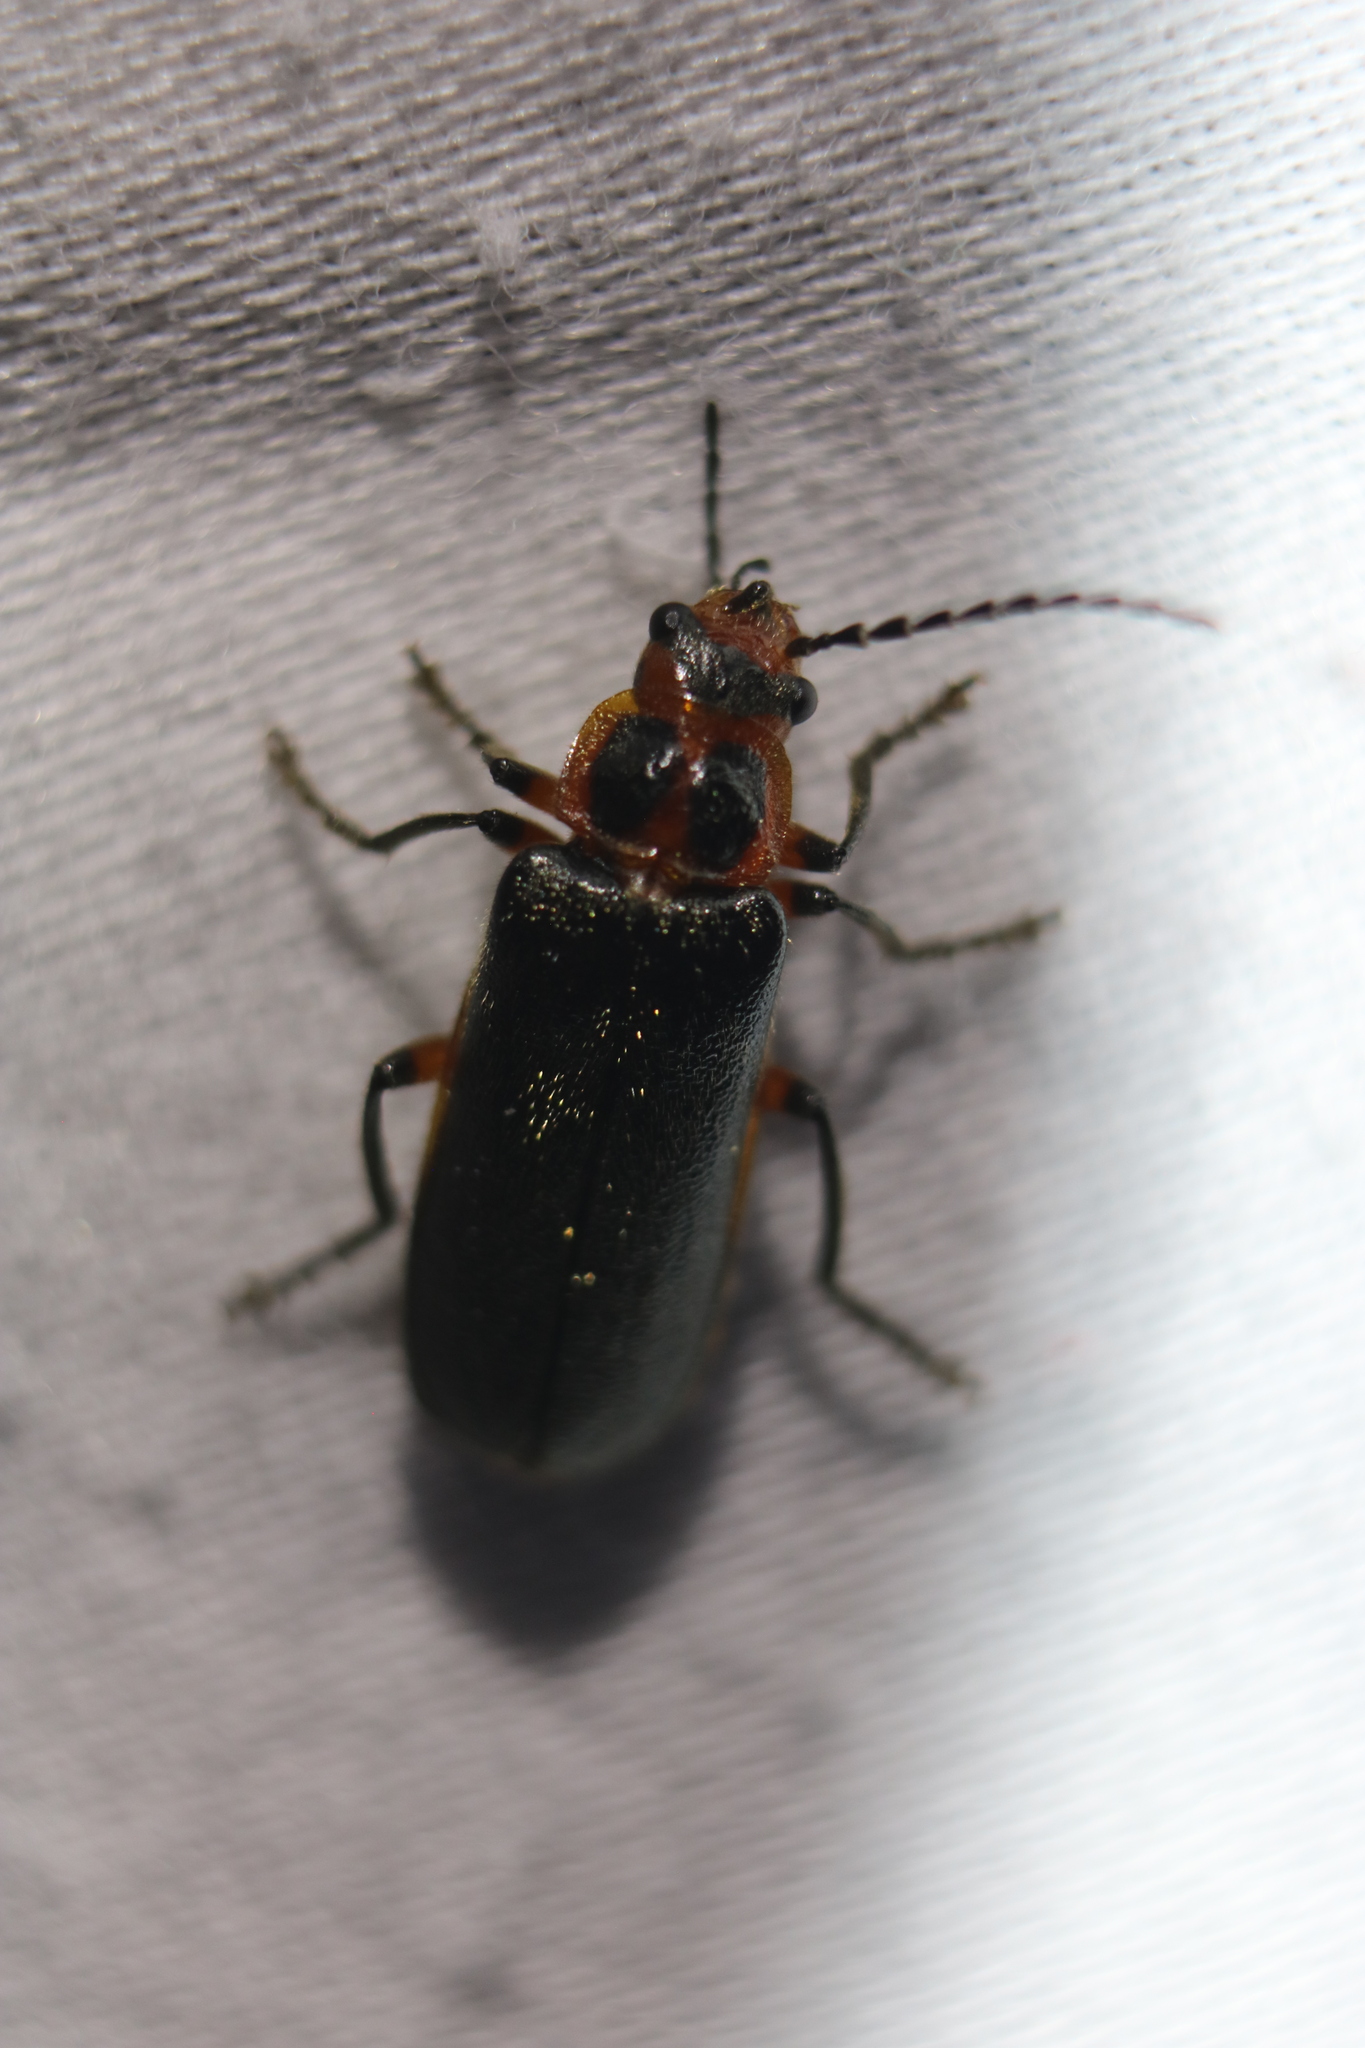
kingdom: Animalia
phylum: Arthropoda
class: Insecta
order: Coleoptera
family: Cantharidae
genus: Atalantycha
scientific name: Atalantycha bilineata
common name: Two-lined leatherwing
